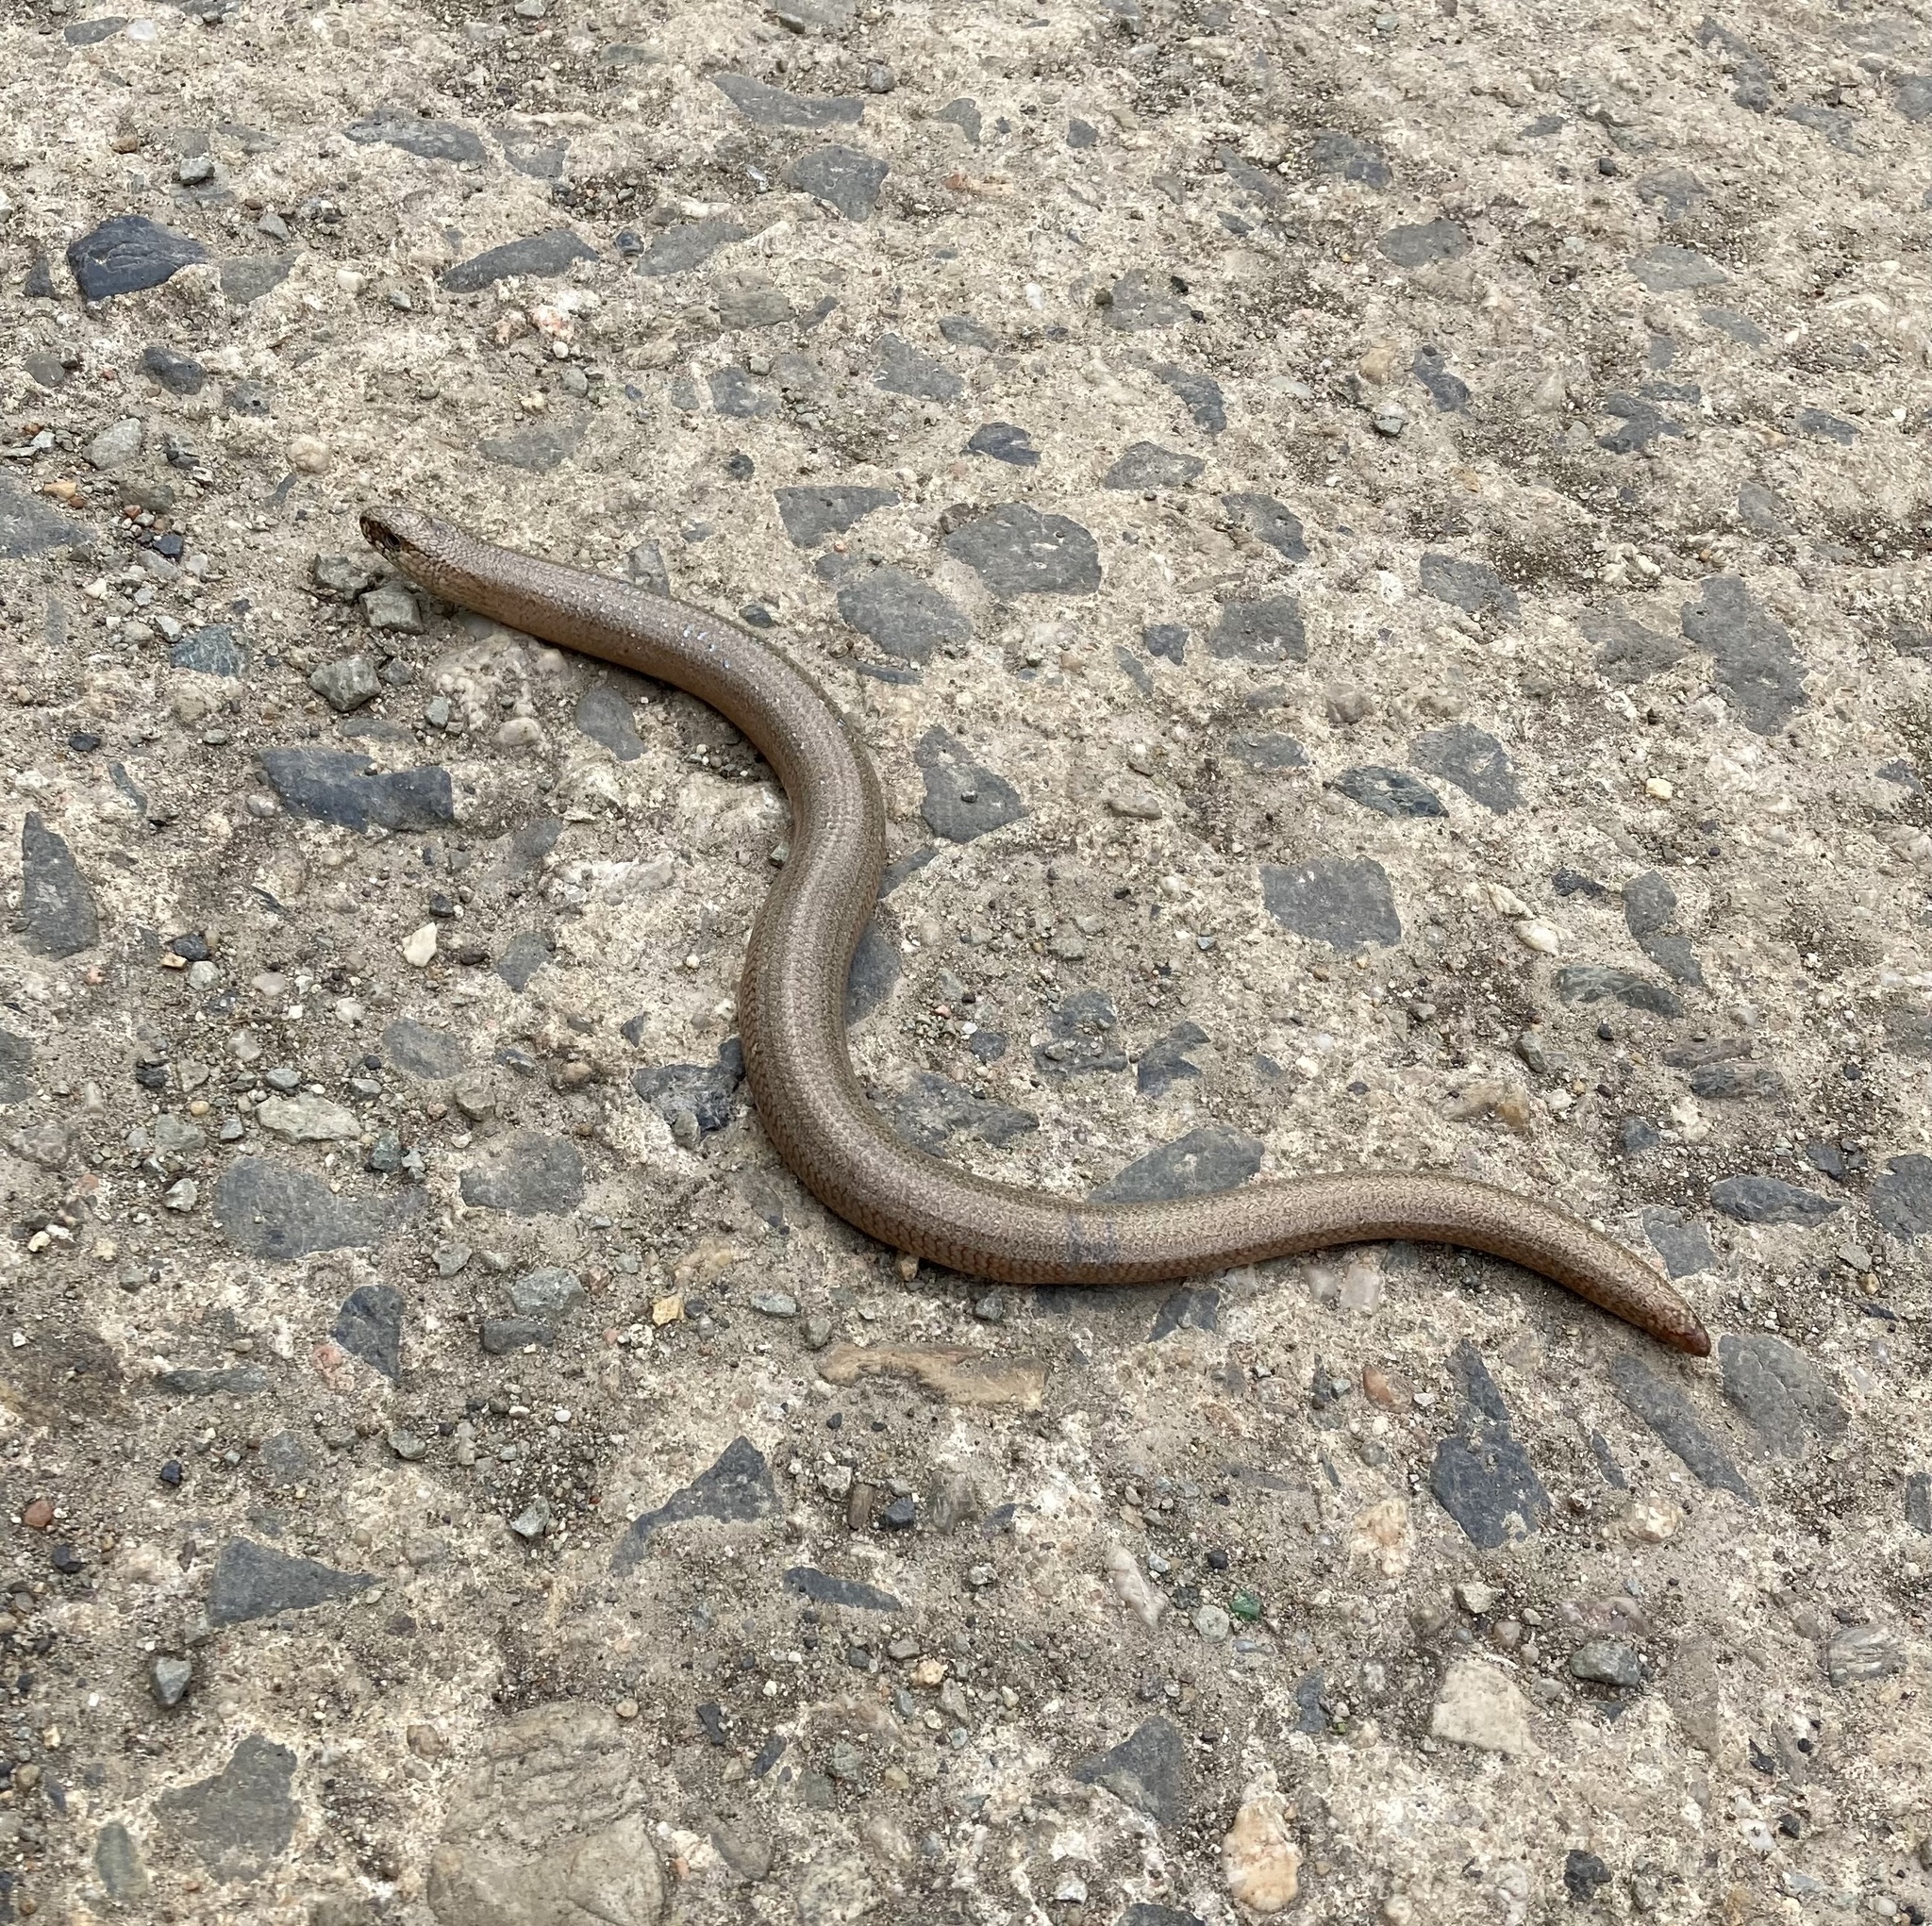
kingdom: Animalia
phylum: Chordata
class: Squamata
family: Anguidae
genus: Anguis
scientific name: Anguis fragilis
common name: Slow worm
